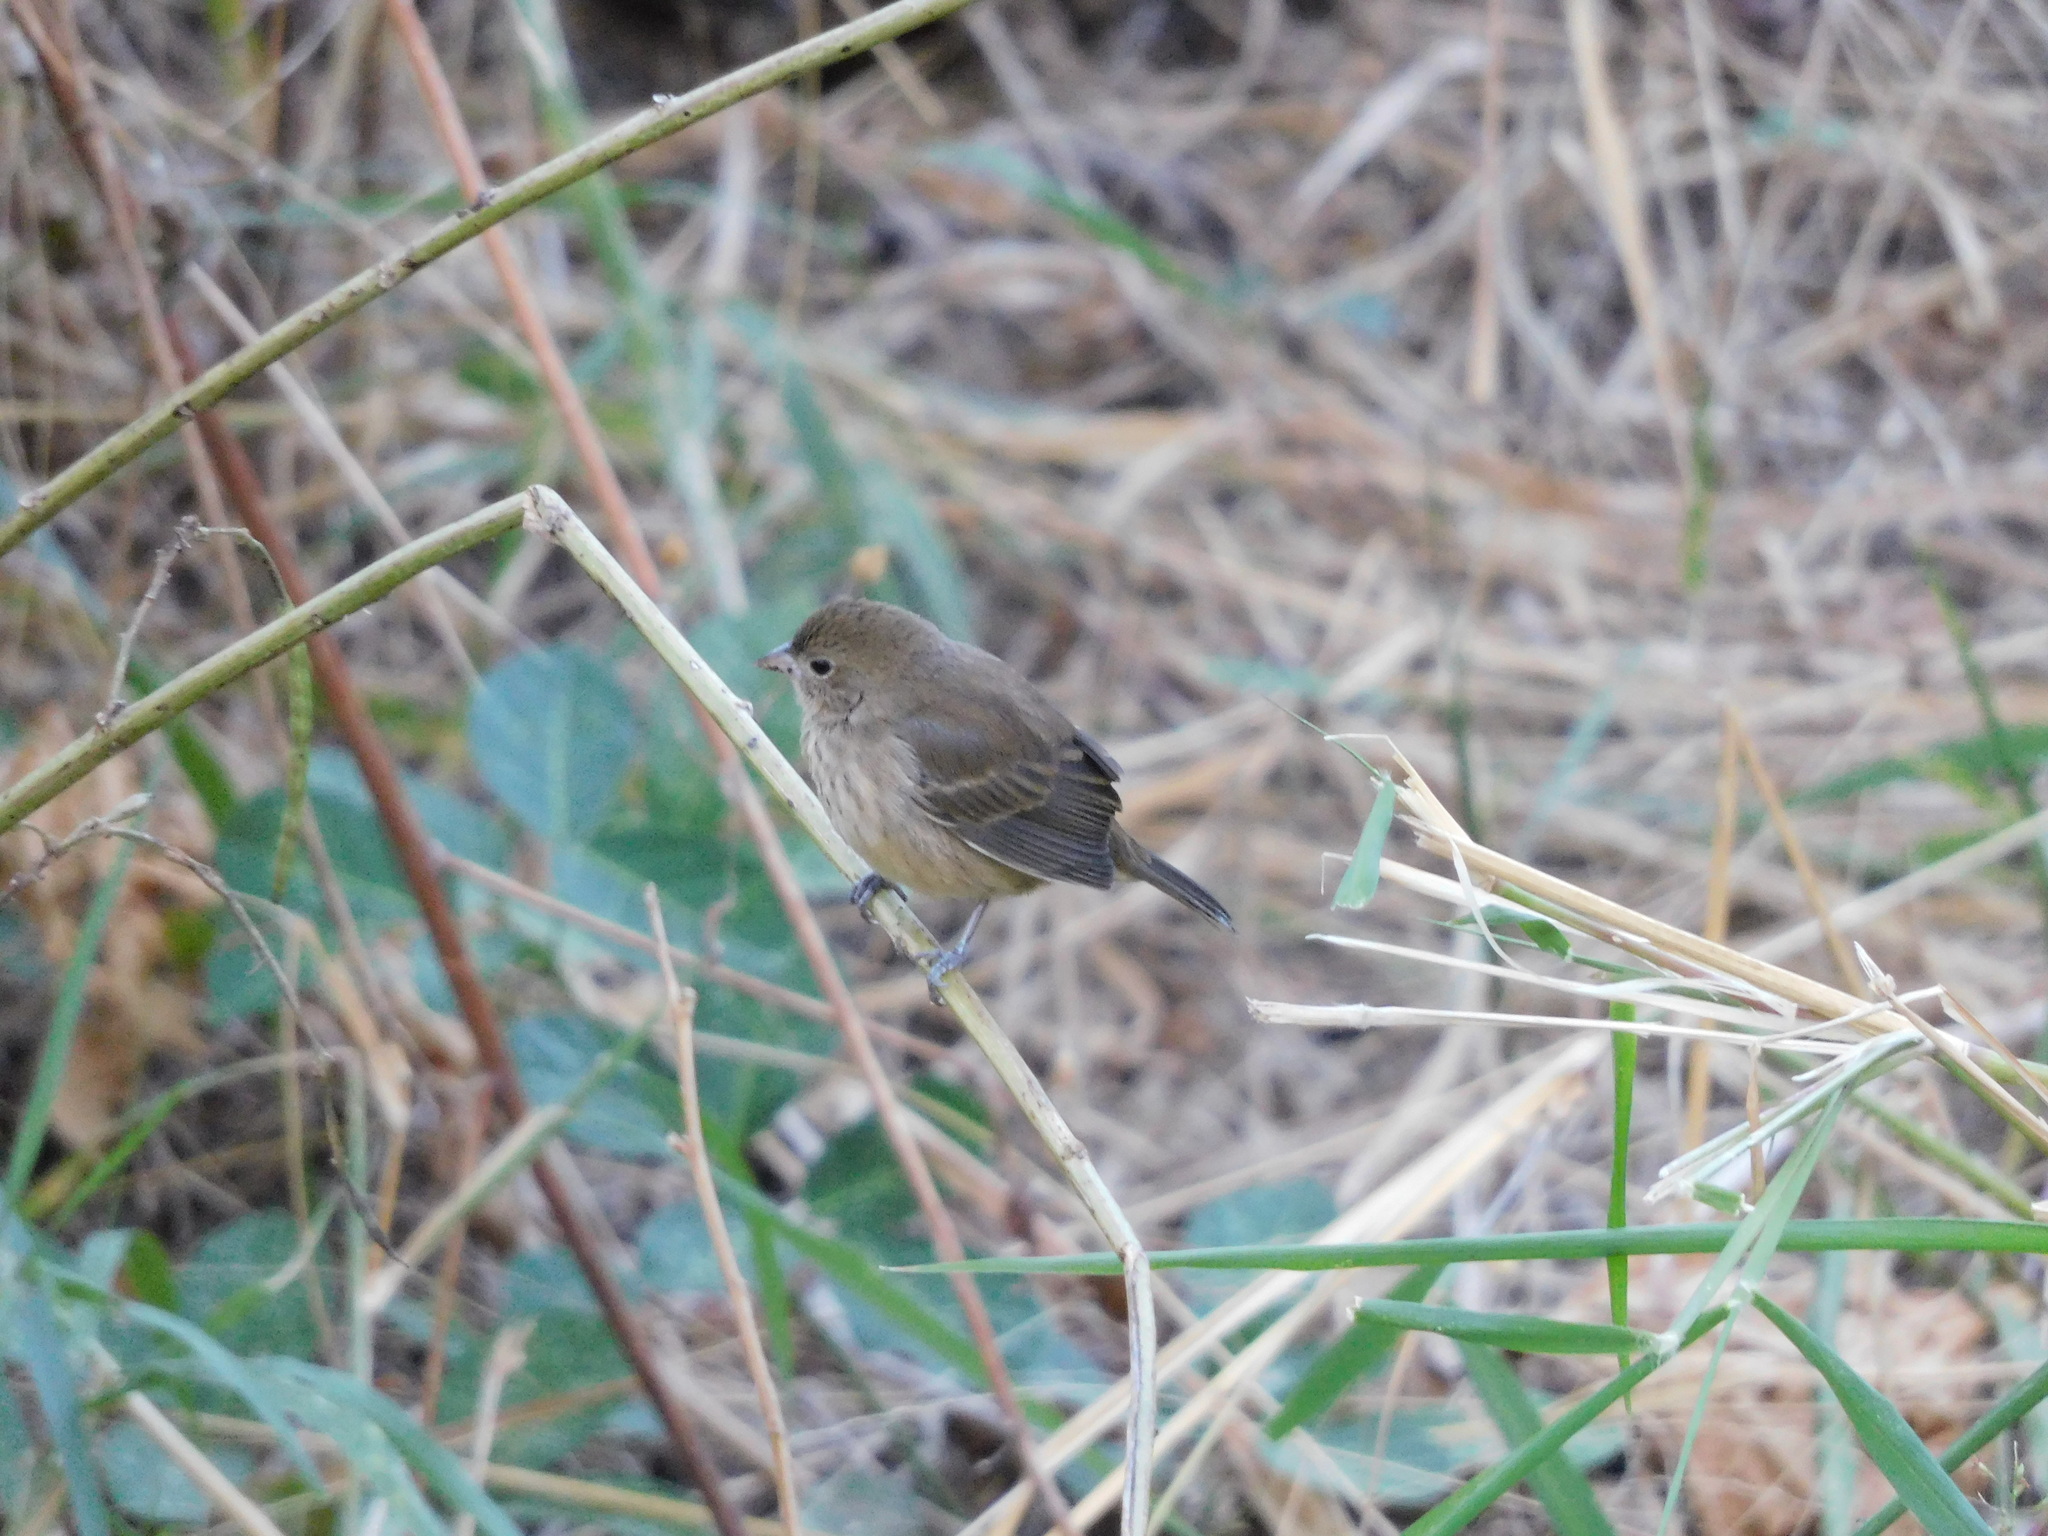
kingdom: Animalia
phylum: Chordata
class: Aves
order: Passeriformes
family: Thraupidae
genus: Volatinia
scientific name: Volatinia jacarina
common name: Blue-black grassquit
